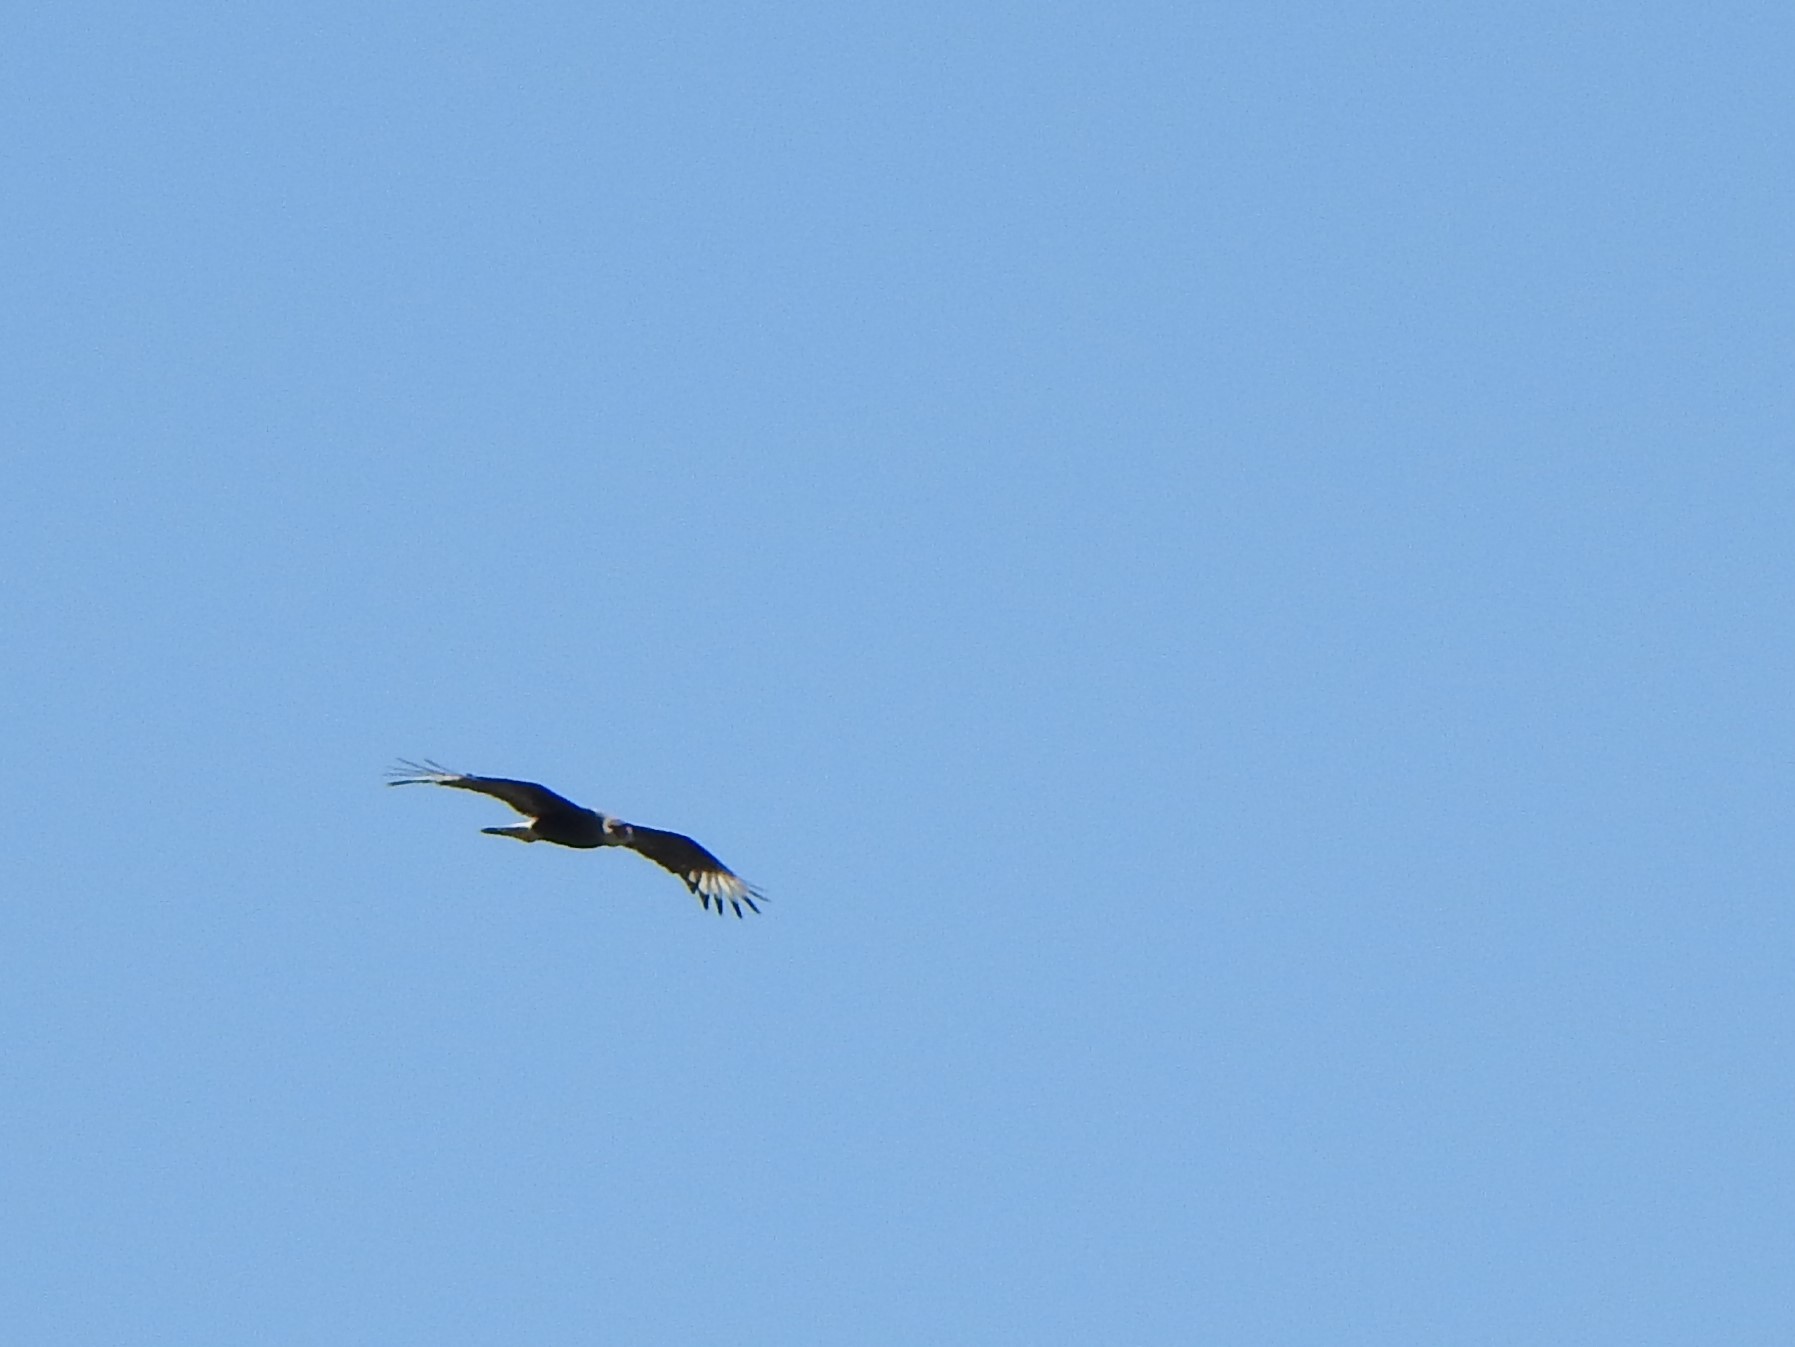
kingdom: Animalia
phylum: Chordata
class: Aves
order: Falconiformes
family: Falconidae
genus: Caracara
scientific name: Caracara plancus
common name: Southern caracara
